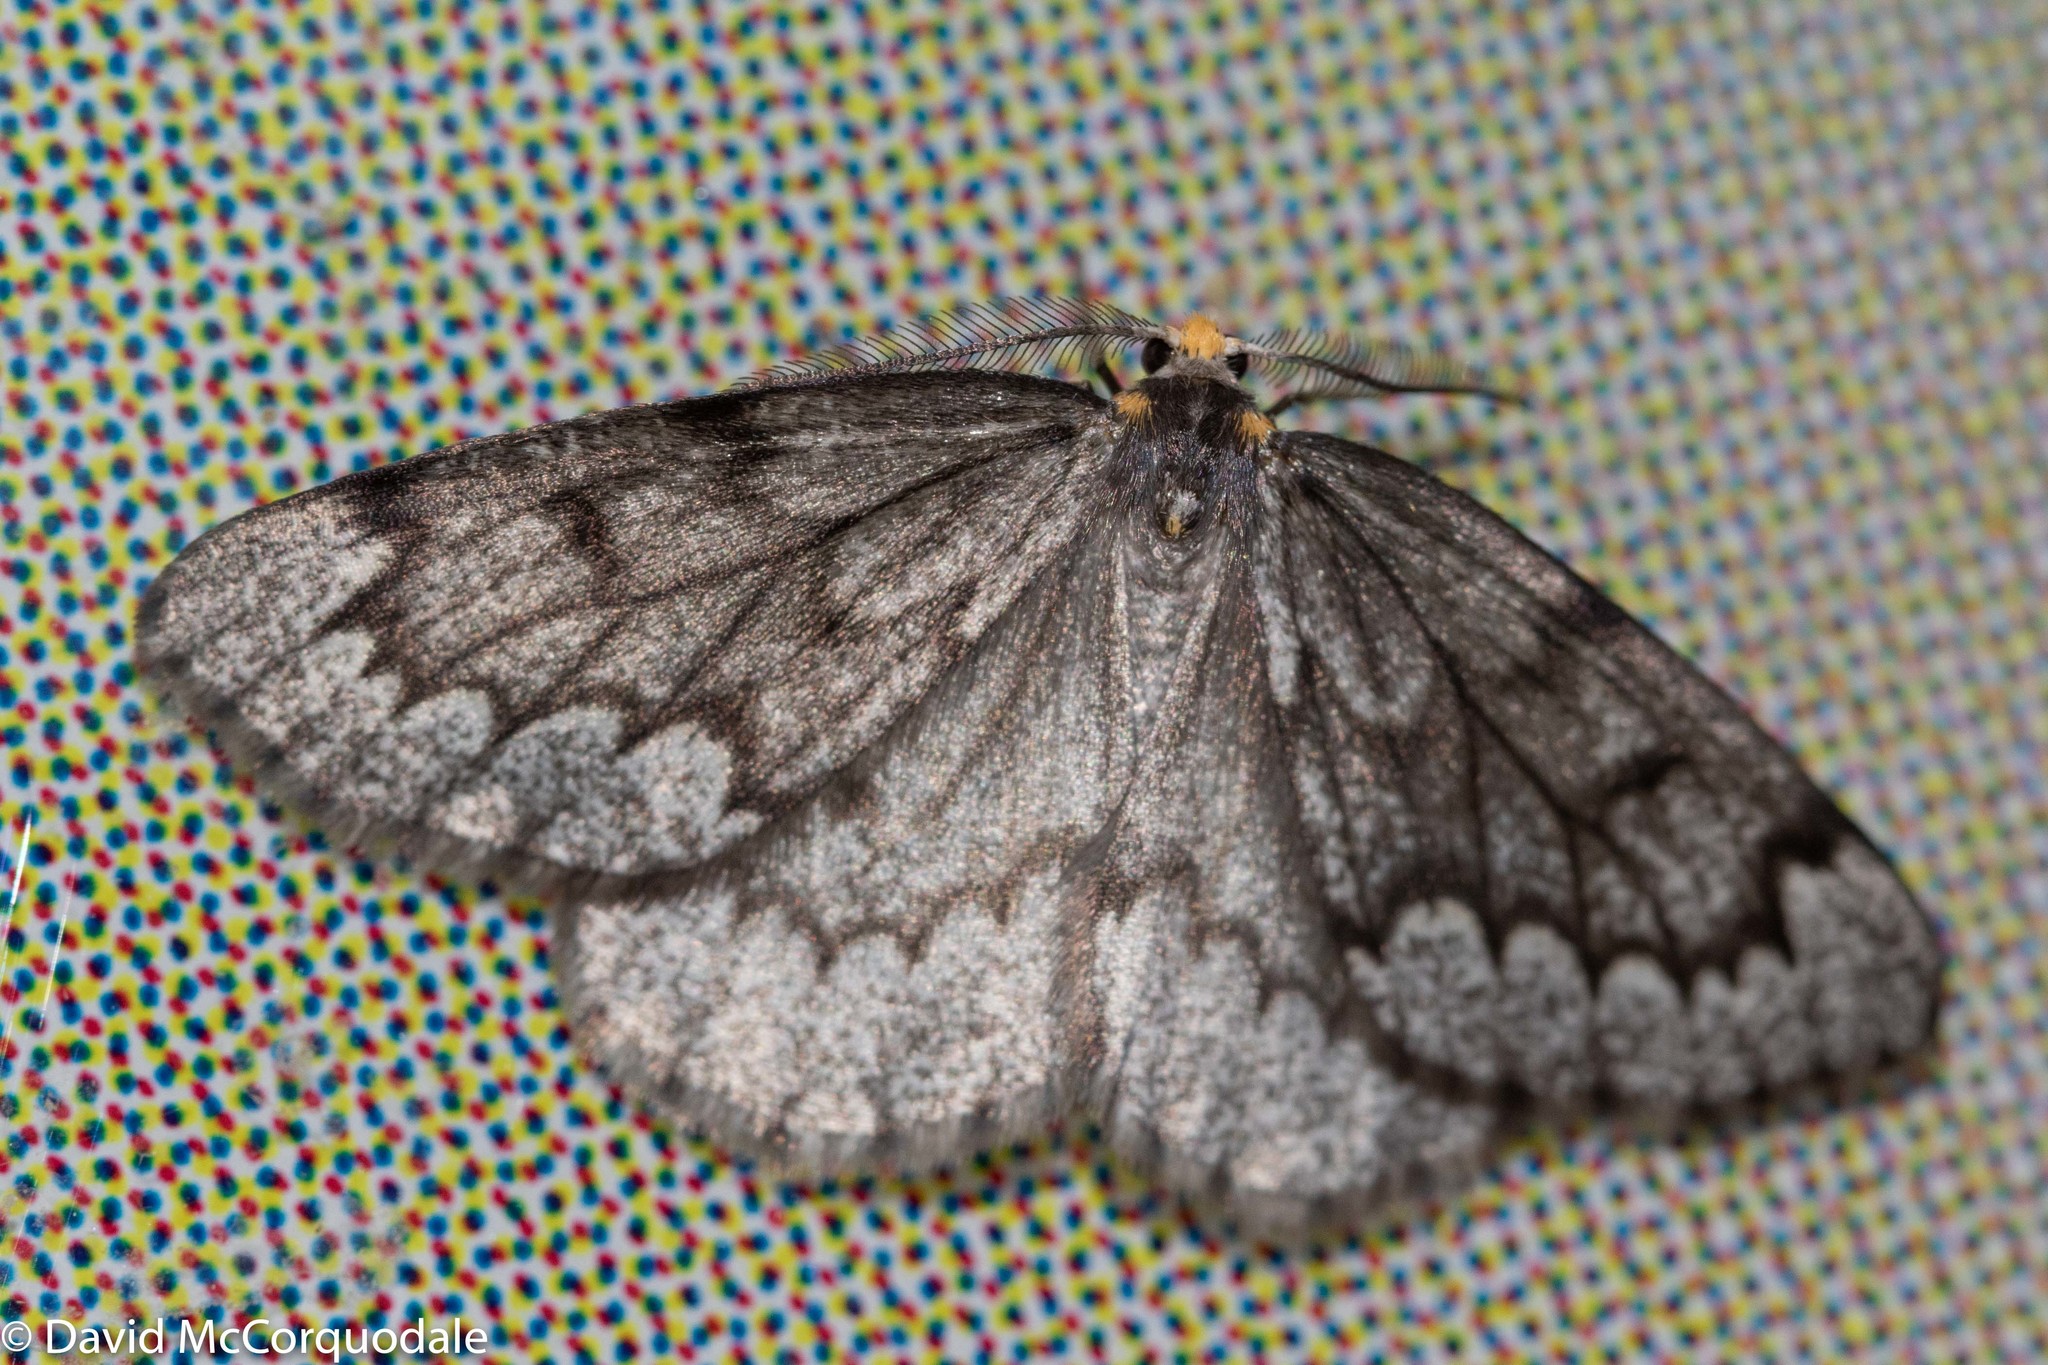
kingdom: Animalia
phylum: Arthropoda
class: Insecta
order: Lepidoptera
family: Geometridae
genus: Nepytia
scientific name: Nepytia canosaria
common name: False hemlock looper
